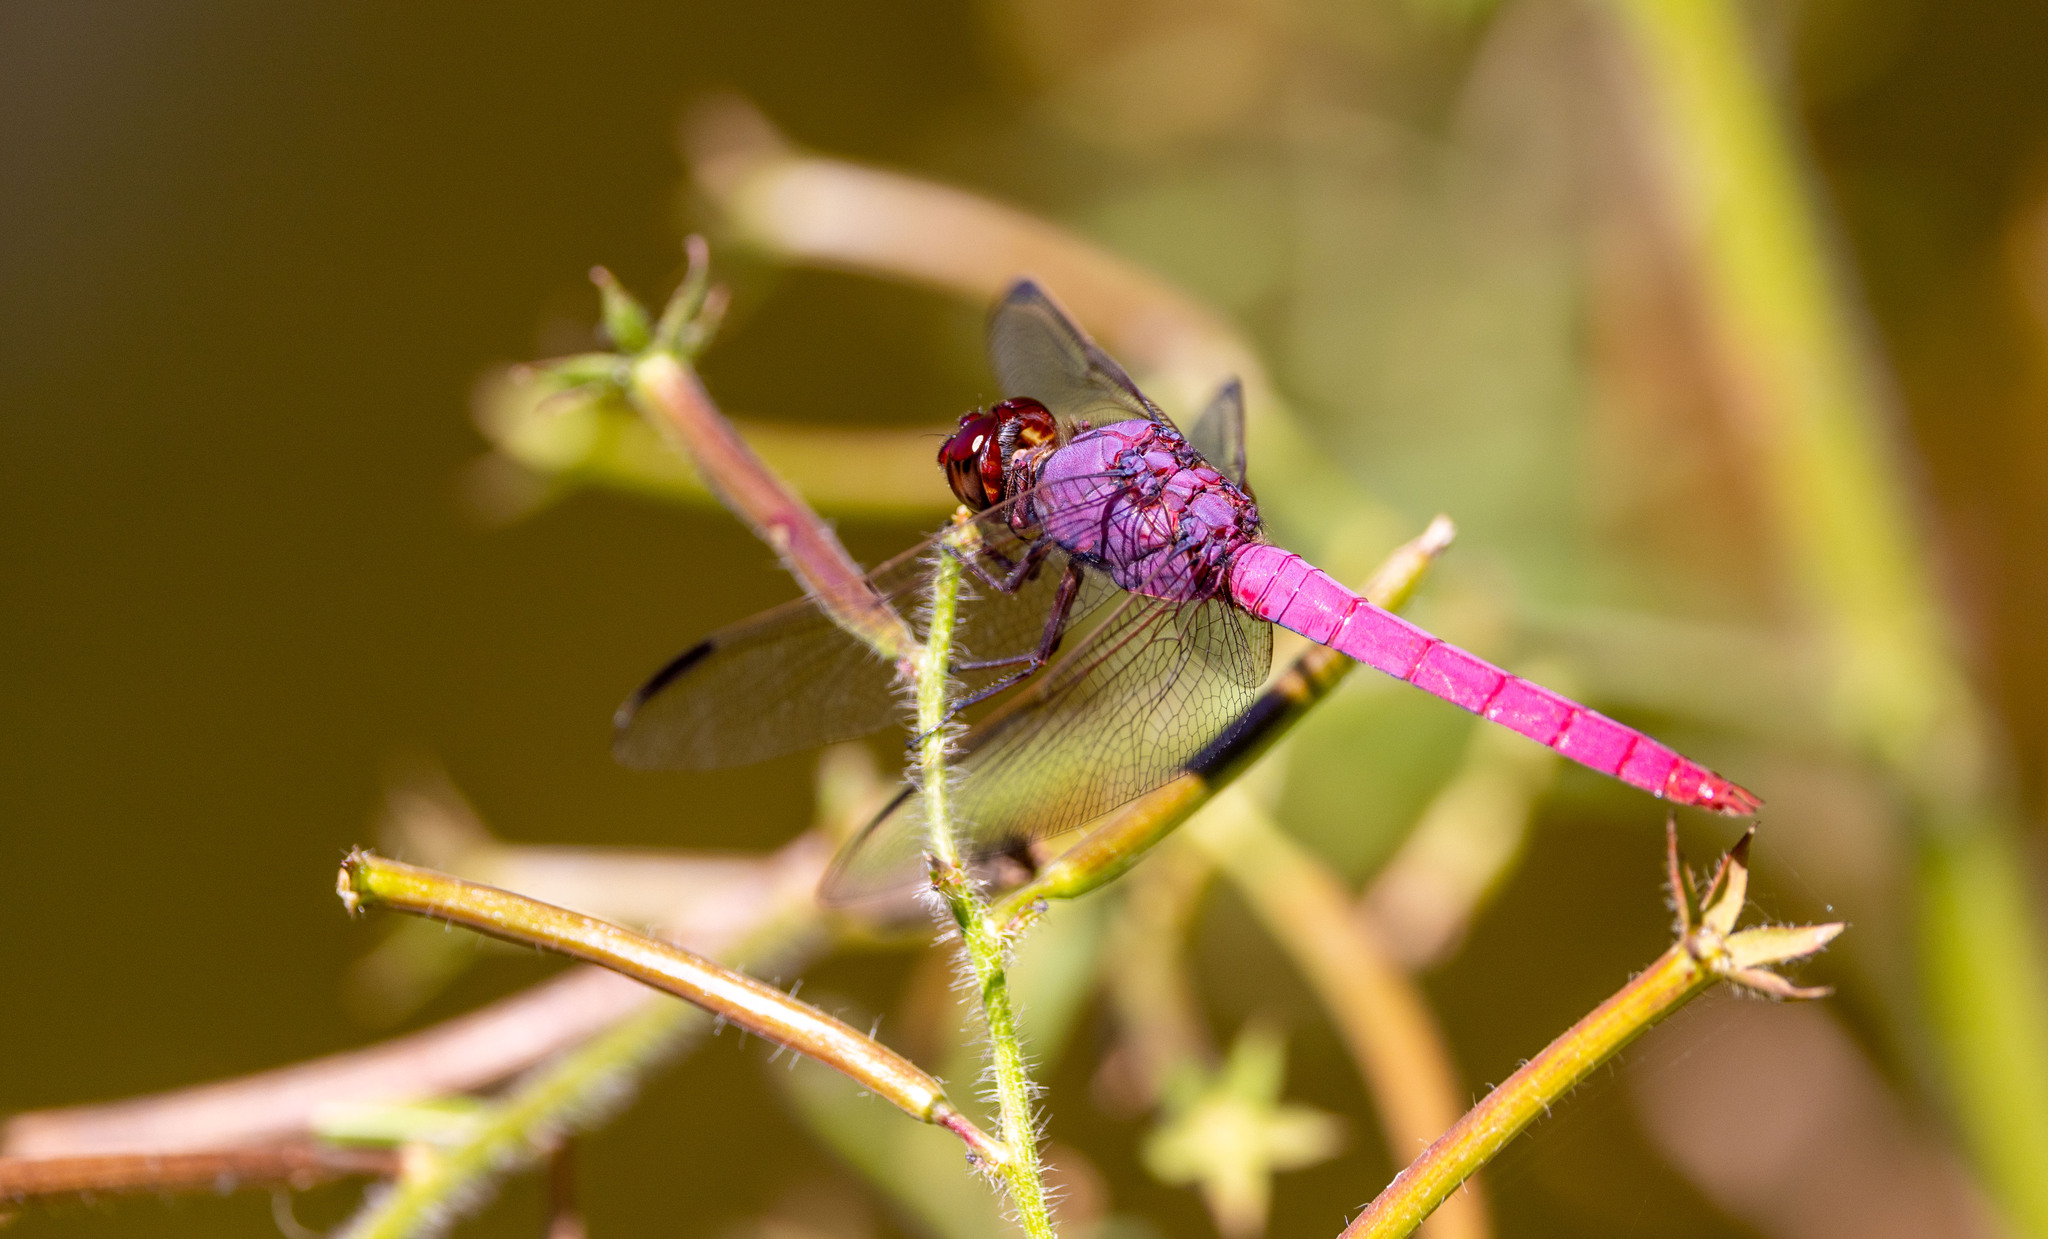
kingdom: Animalia
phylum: Arthropoda
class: Insecta
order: Odonata
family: Libellulidae
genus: Orthemis
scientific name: Orthemis ferruginea
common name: Roseate skimmer
